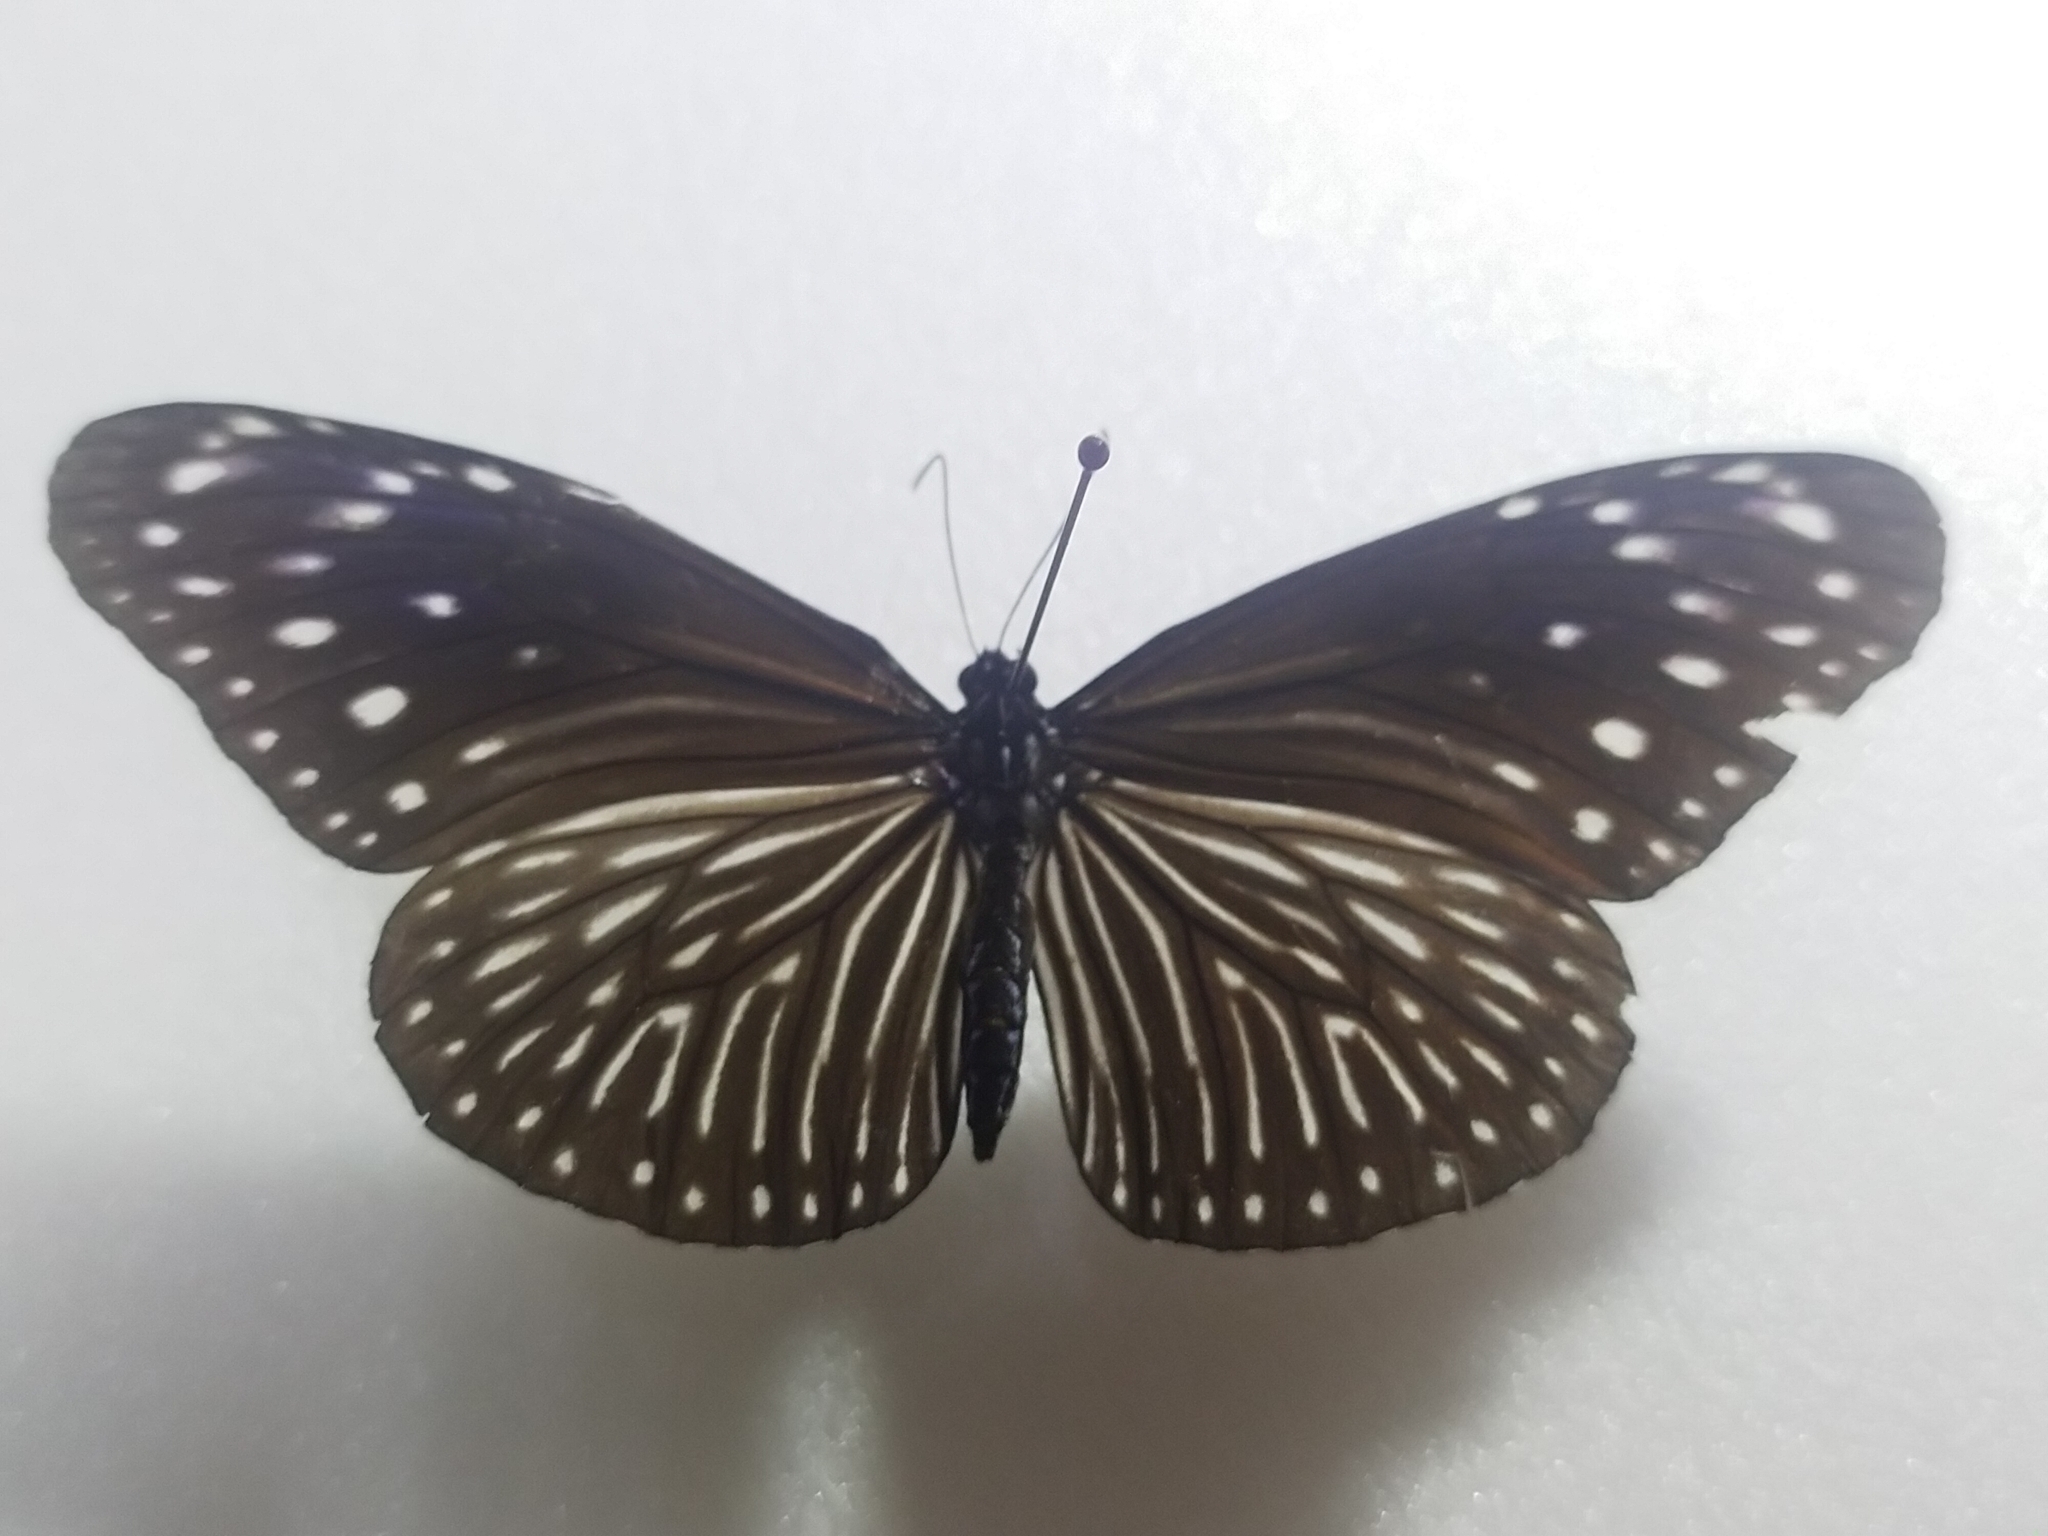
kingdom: Animalia
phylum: Arthropoda
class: Insecta
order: Lepidoptera
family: Nymphalidae
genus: Euploea
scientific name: Euploea mulciber
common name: Striped blue crow butterfly
